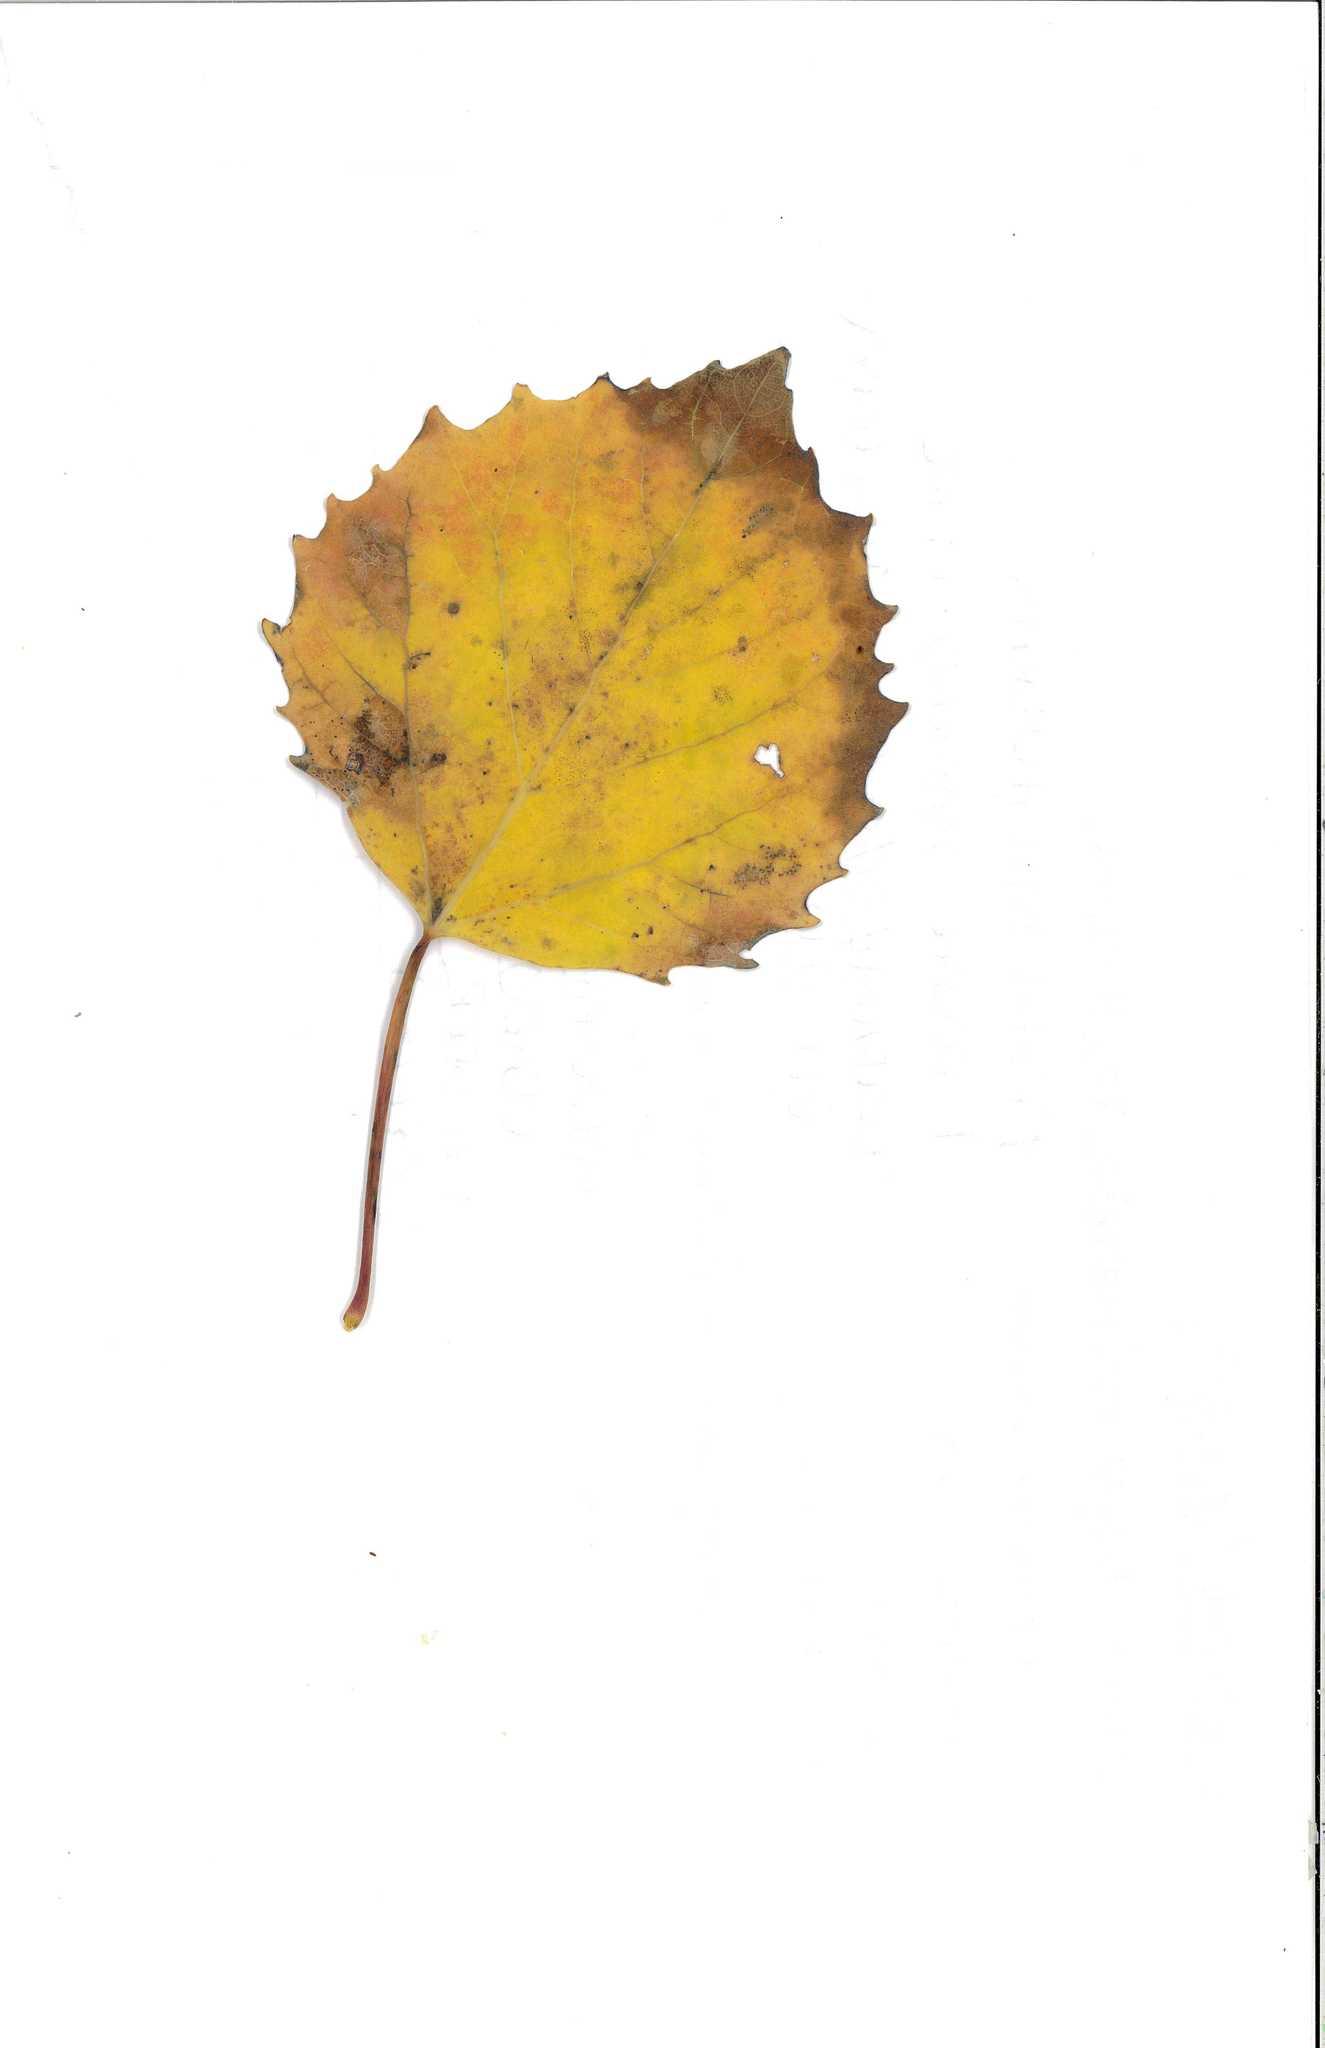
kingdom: Plantae
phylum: Tracheophyta
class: Magnoliopsida
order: Malpighiales
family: Salicaceae
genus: Populus
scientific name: Populus grandidentata
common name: Bigtooth aspen
